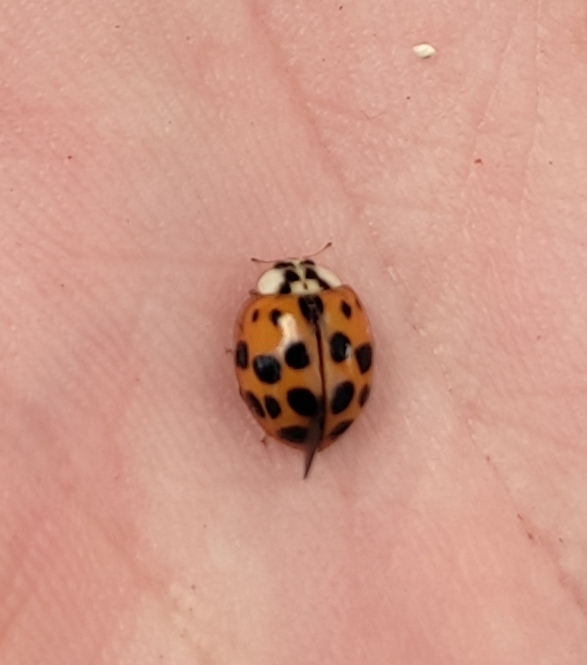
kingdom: Animalia
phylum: Arthropoda
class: Insecta
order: Coleoptera
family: Coccinellidae
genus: Harmonia
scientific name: Harmonia axyridis
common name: Harlequin ladybird
